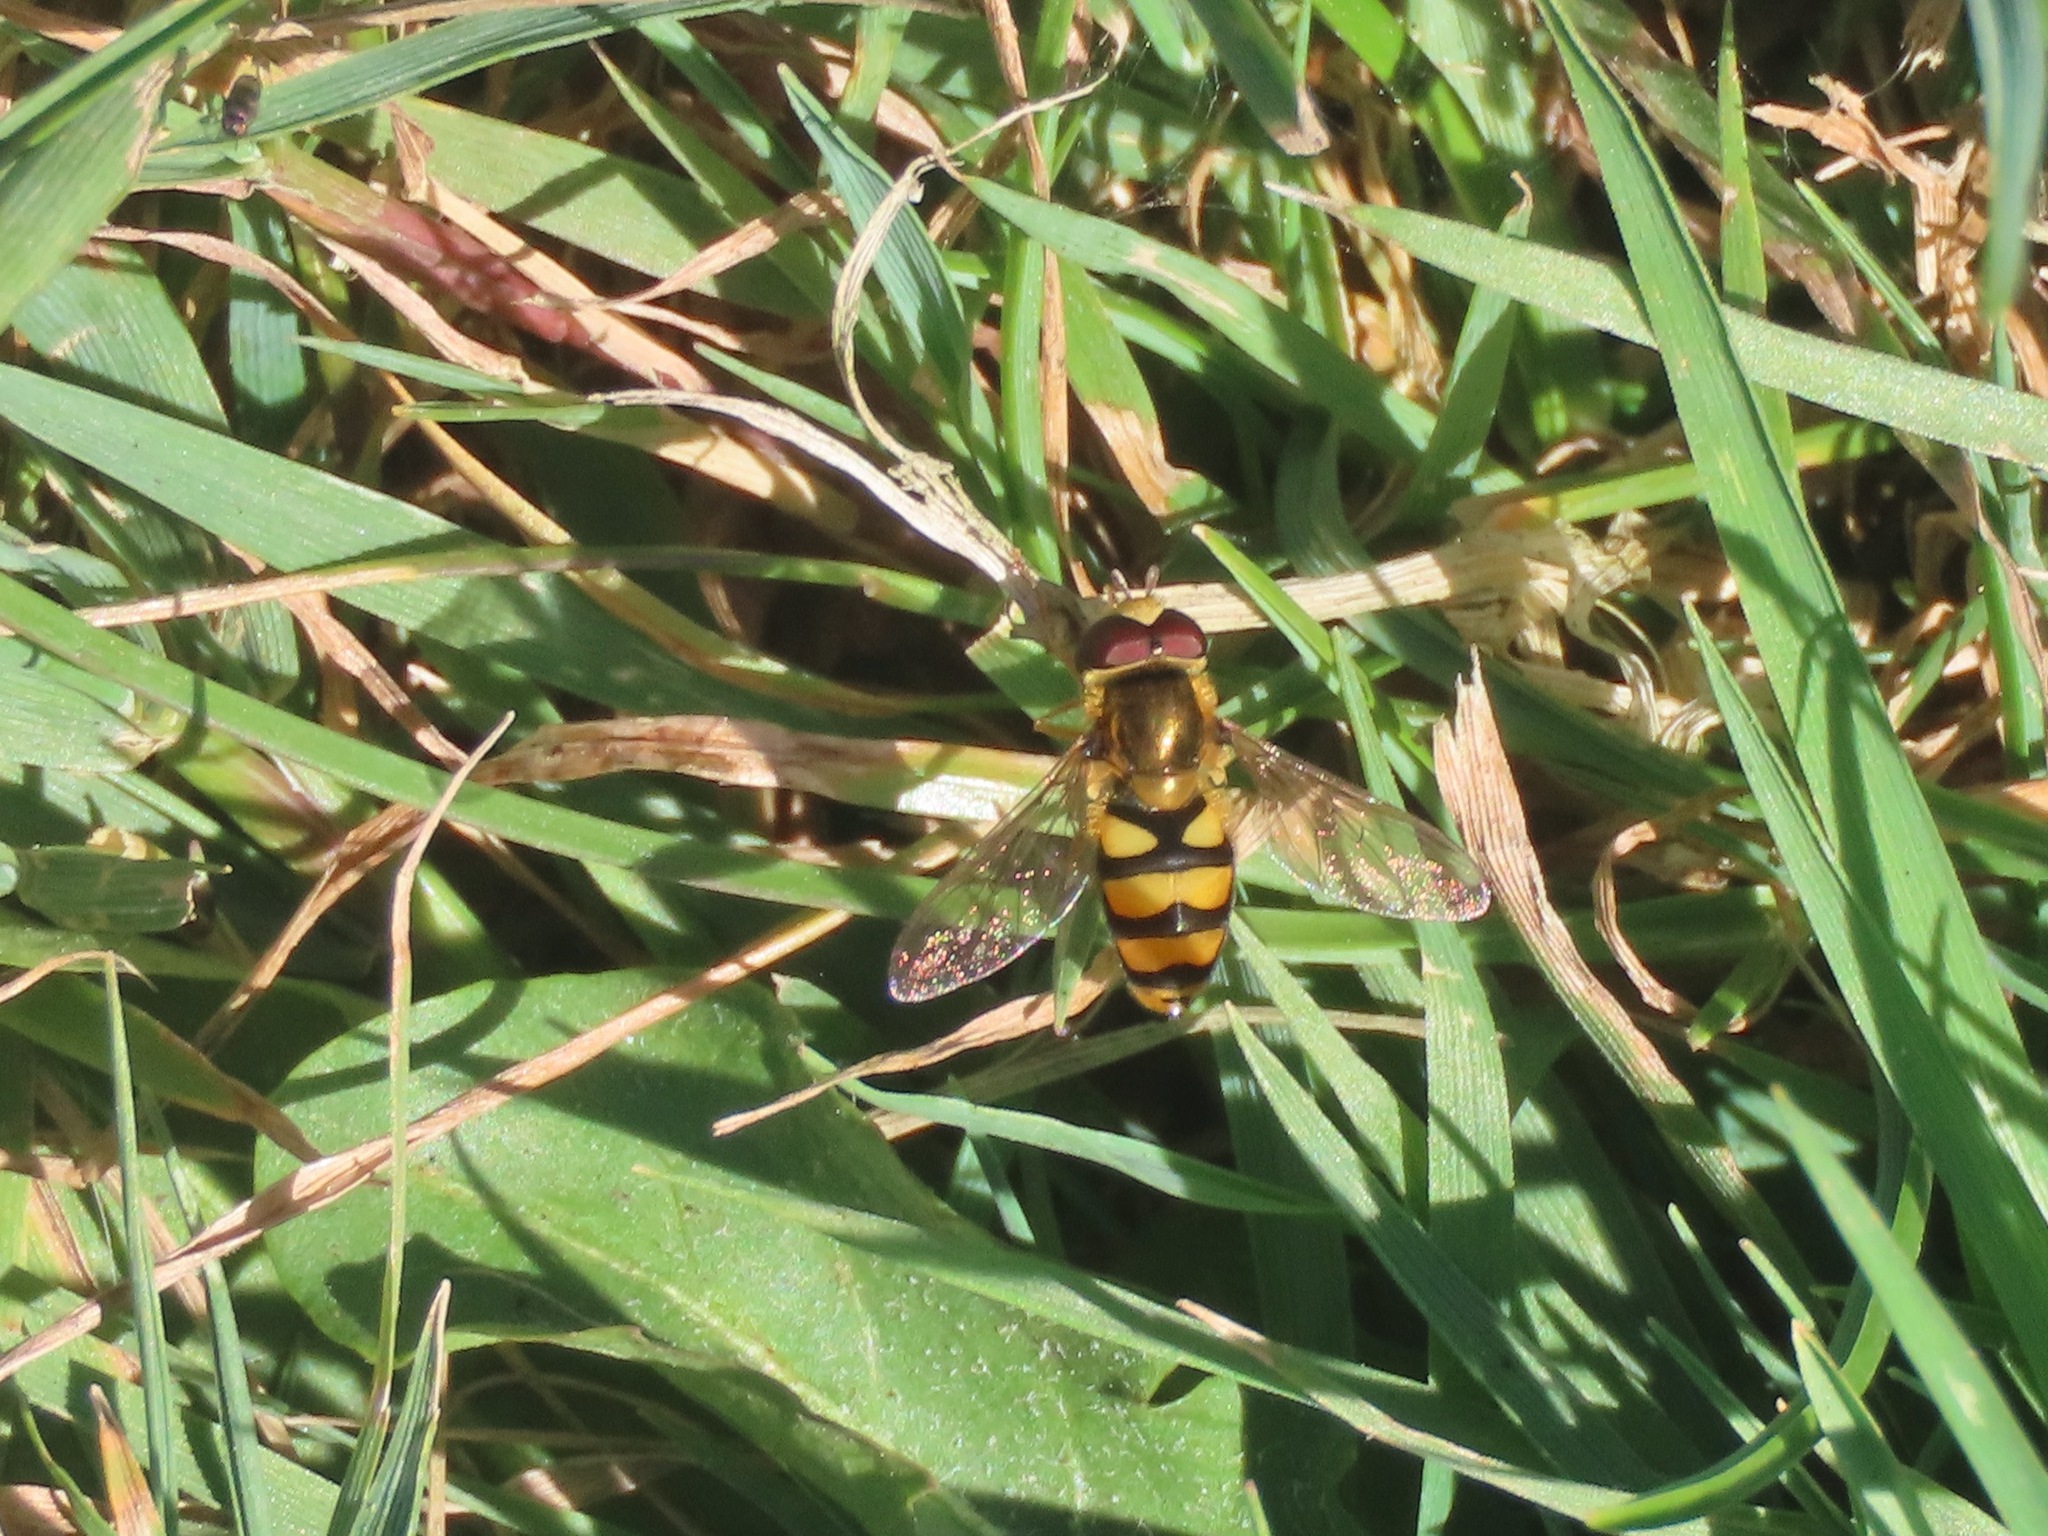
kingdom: Animalia
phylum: Arthropoda
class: Insecta
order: Diptera
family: Syrphidae
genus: Eupeodes
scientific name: Eupeodes latifasciatus
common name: Variable aphideater
